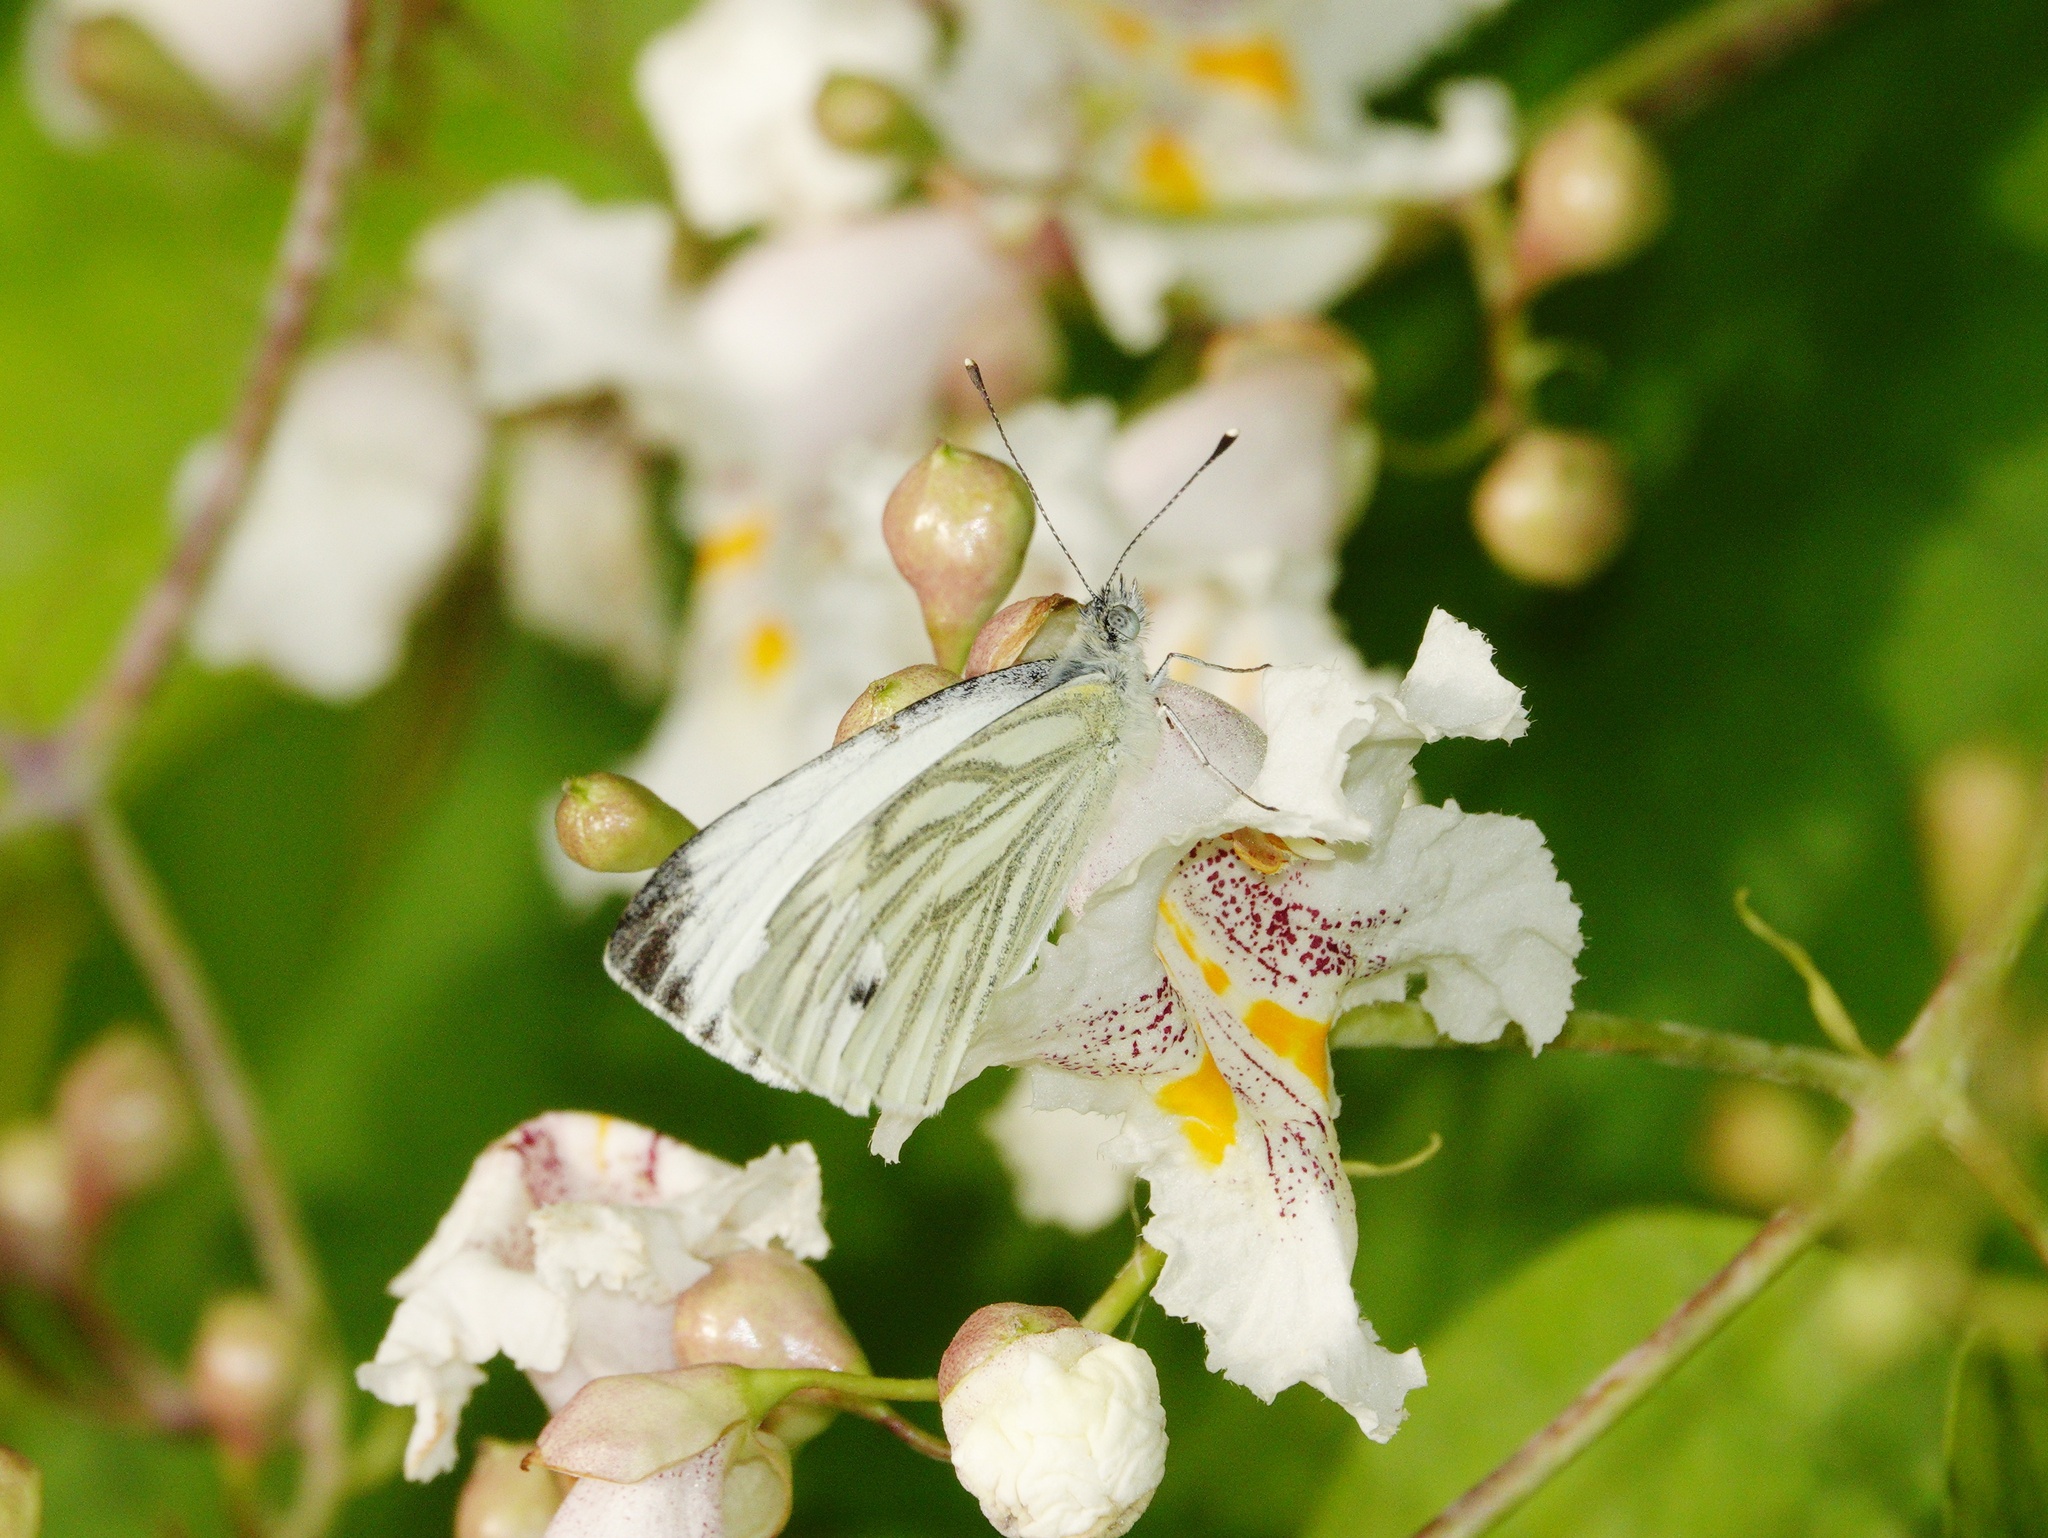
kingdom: Animalia
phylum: Arthropoda
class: Insecta
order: Lepidoptera
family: Pieridae
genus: Pieris
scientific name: Pieris napi
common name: Green-veined white
